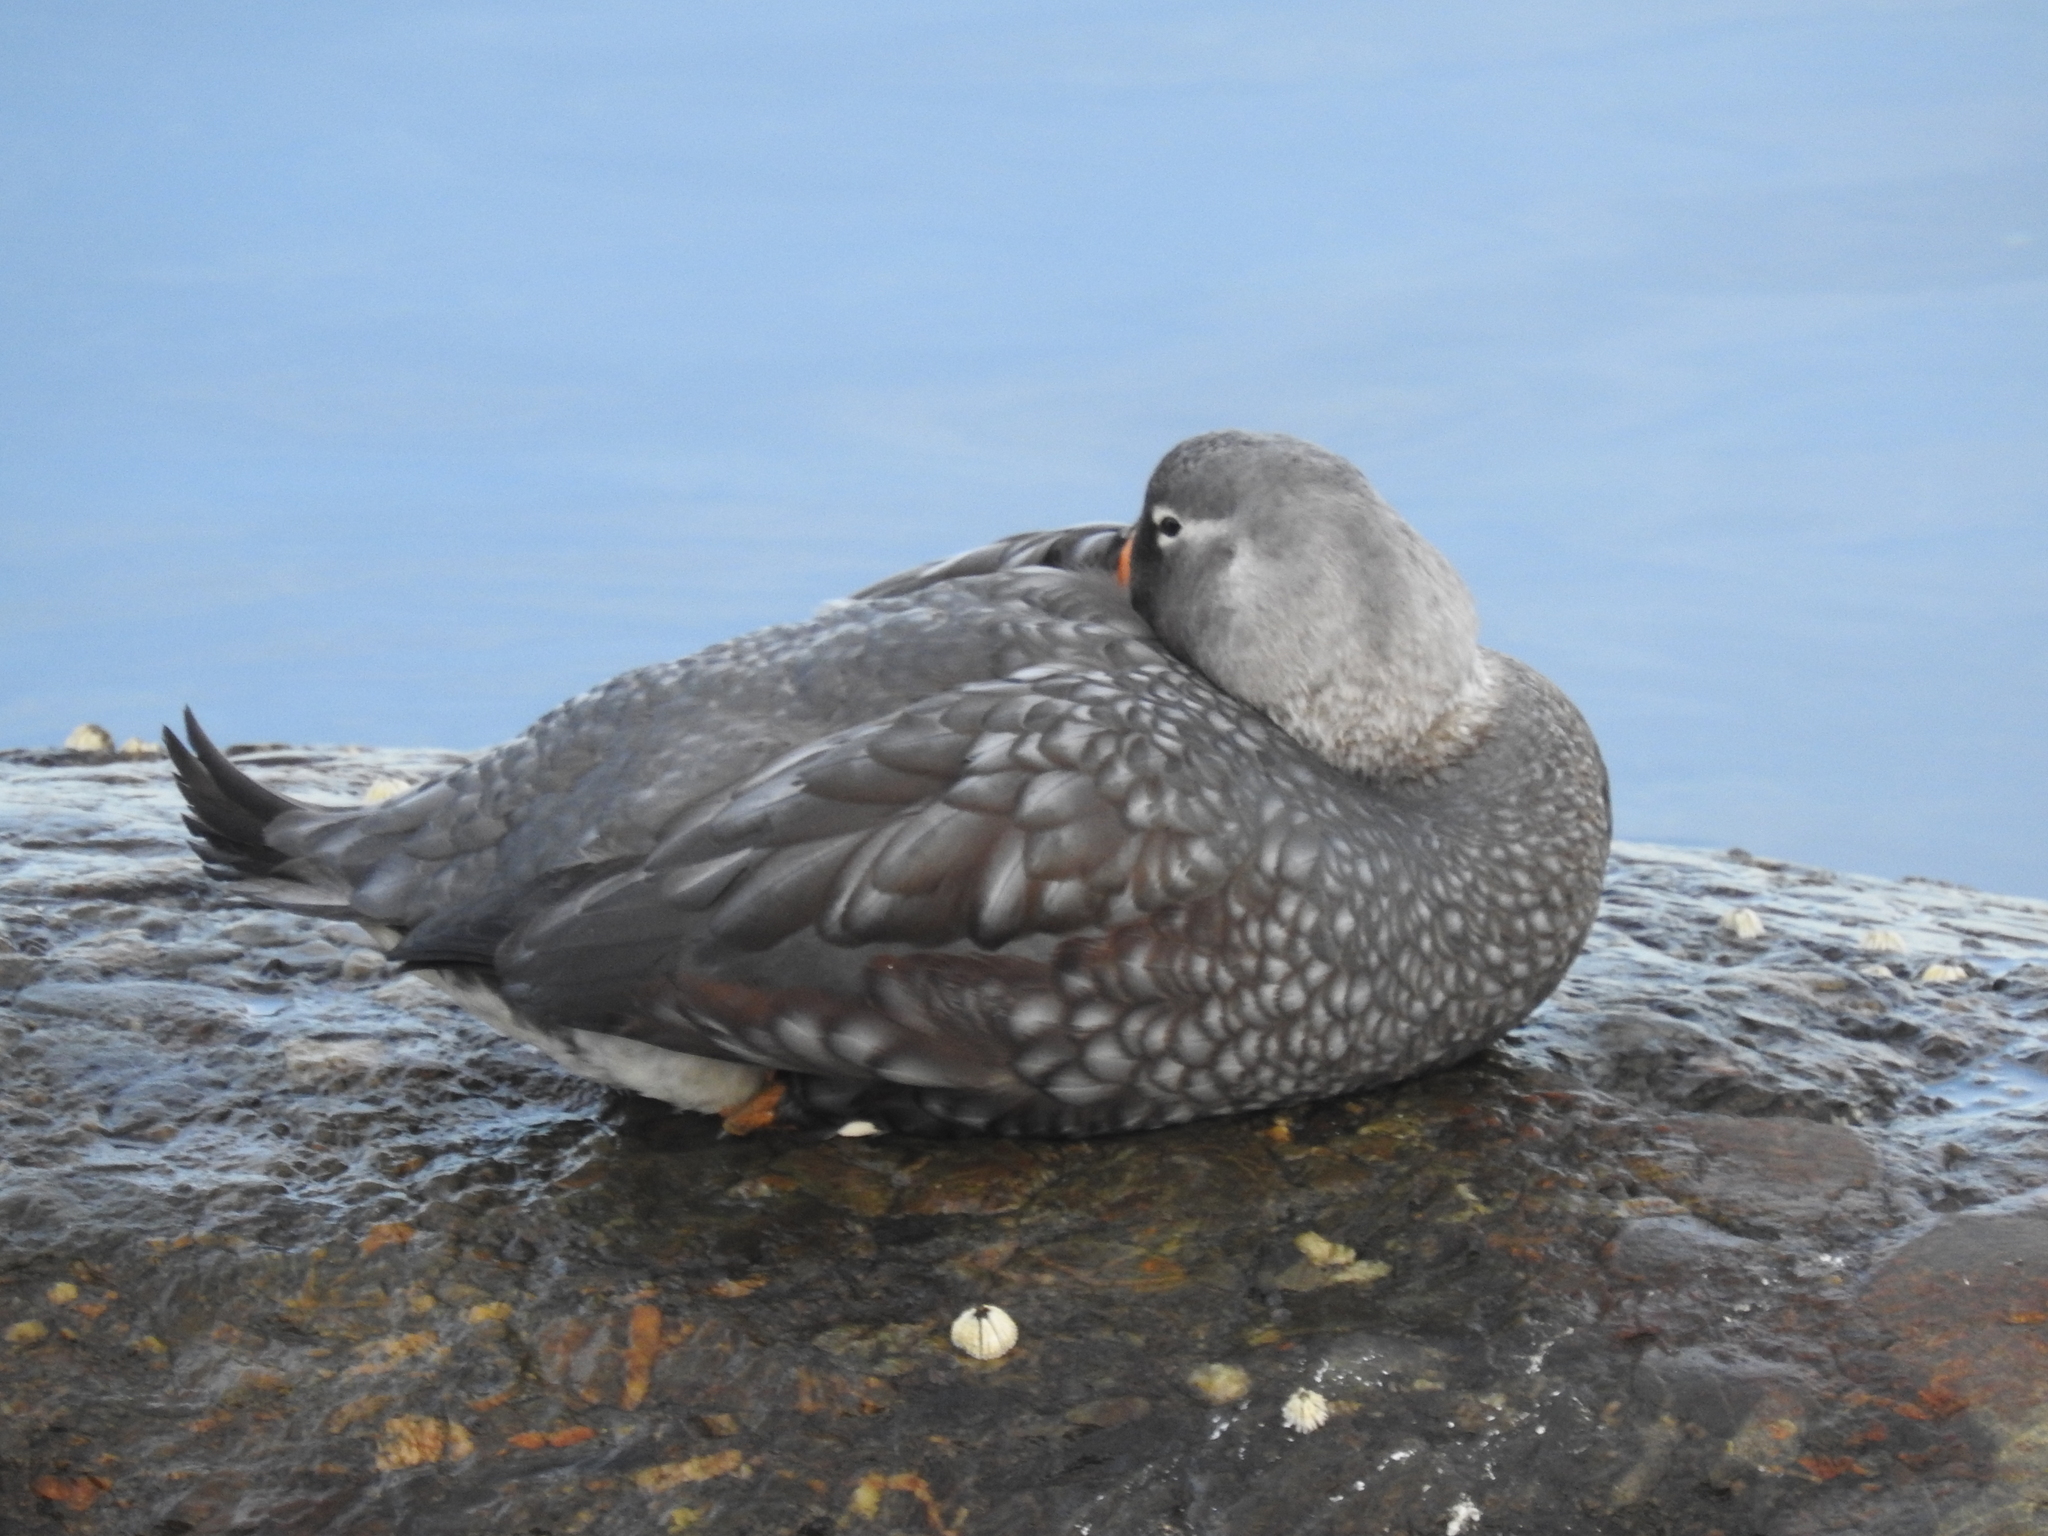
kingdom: Animalia
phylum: Chordata
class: Aves
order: Anseriformes
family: Anatidae
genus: Tachyeres
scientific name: Tachyeres pteneres
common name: Fuegian steamer duck
